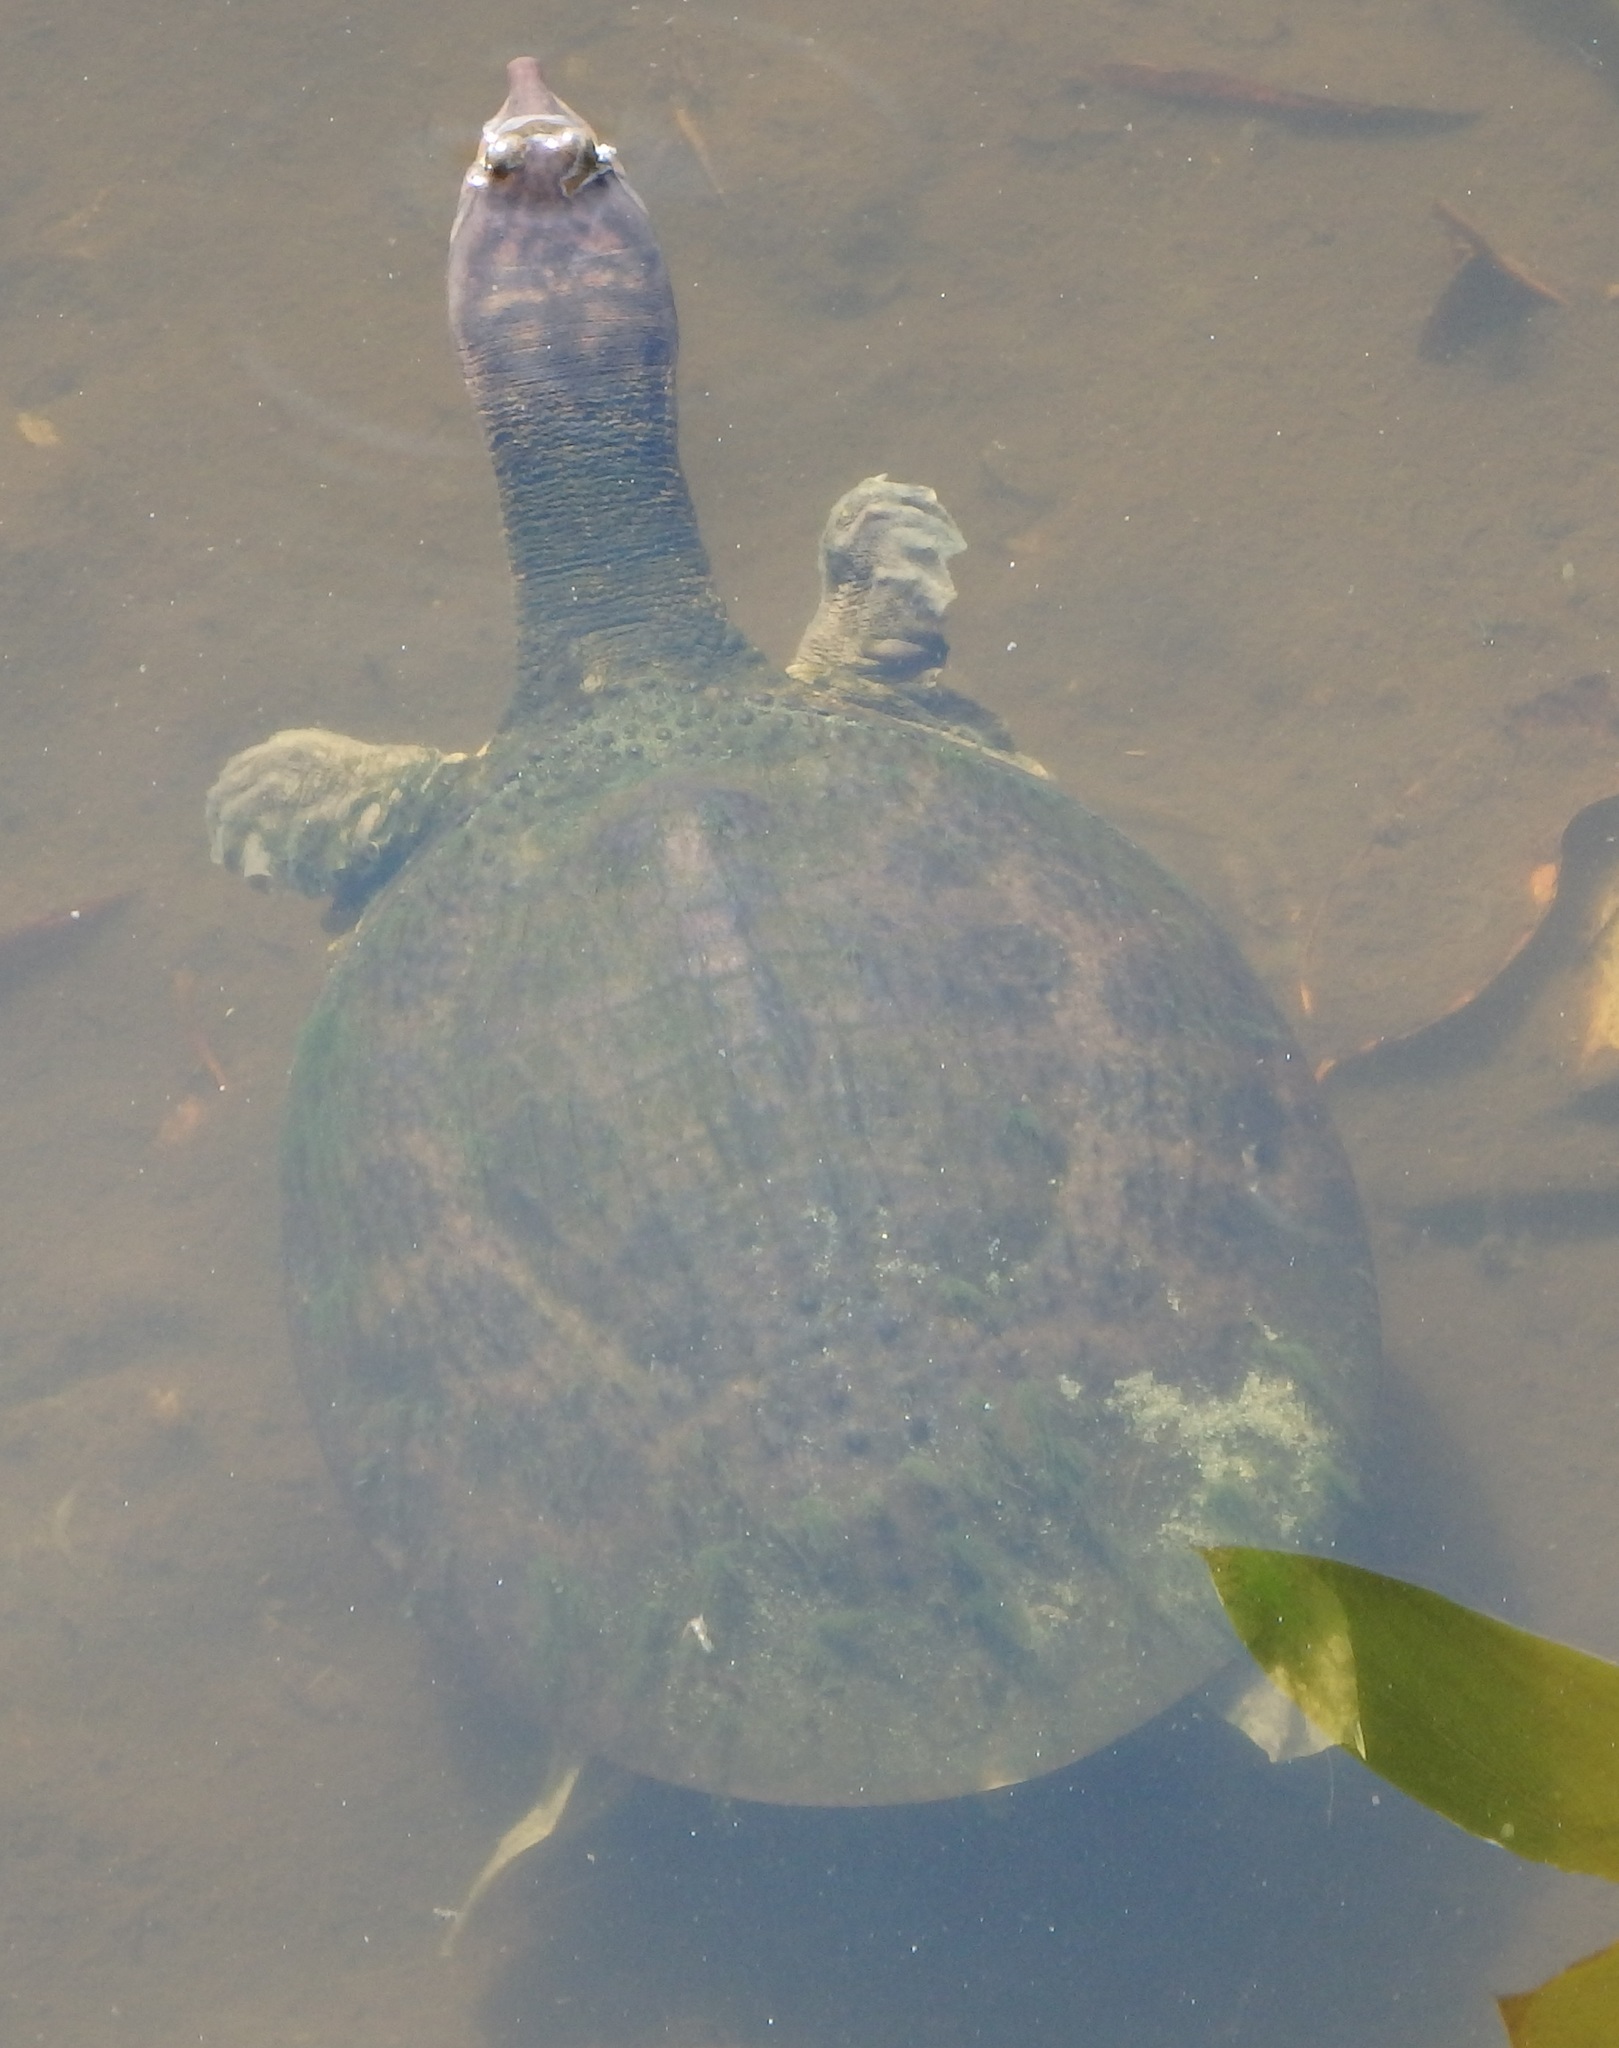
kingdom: Animalia
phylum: Chordata
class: Testudines
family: Trionychidae
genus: Apalone
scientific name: Apalone ferox
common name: Florida softshell turtle
